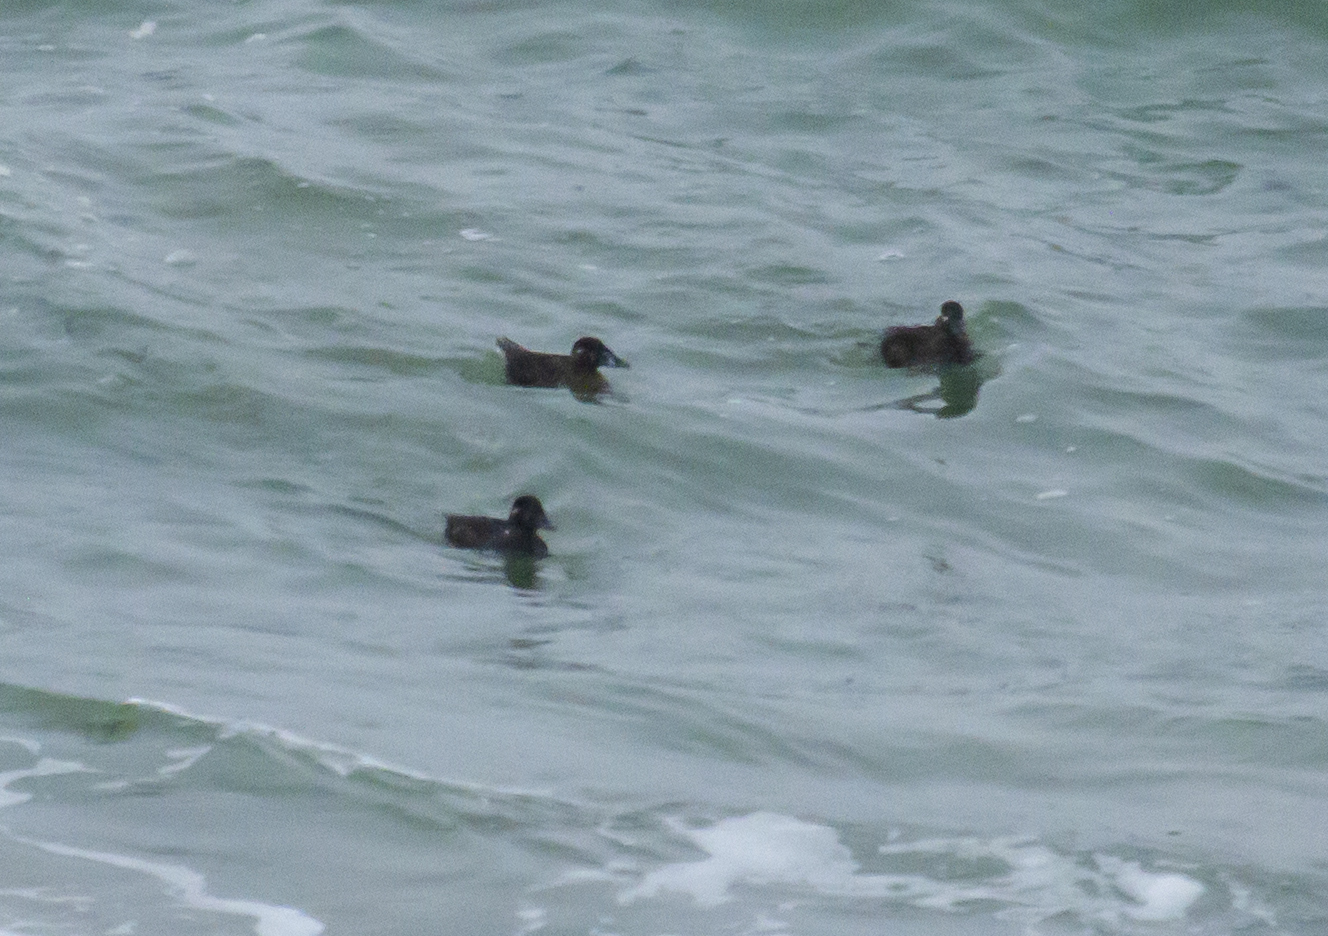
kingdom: Animalia
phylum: Chordata
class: Aves
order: Anseriformes
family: Anatidae
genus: Melanitta
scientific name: Melanitta perspicillata
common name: Surf scoter
